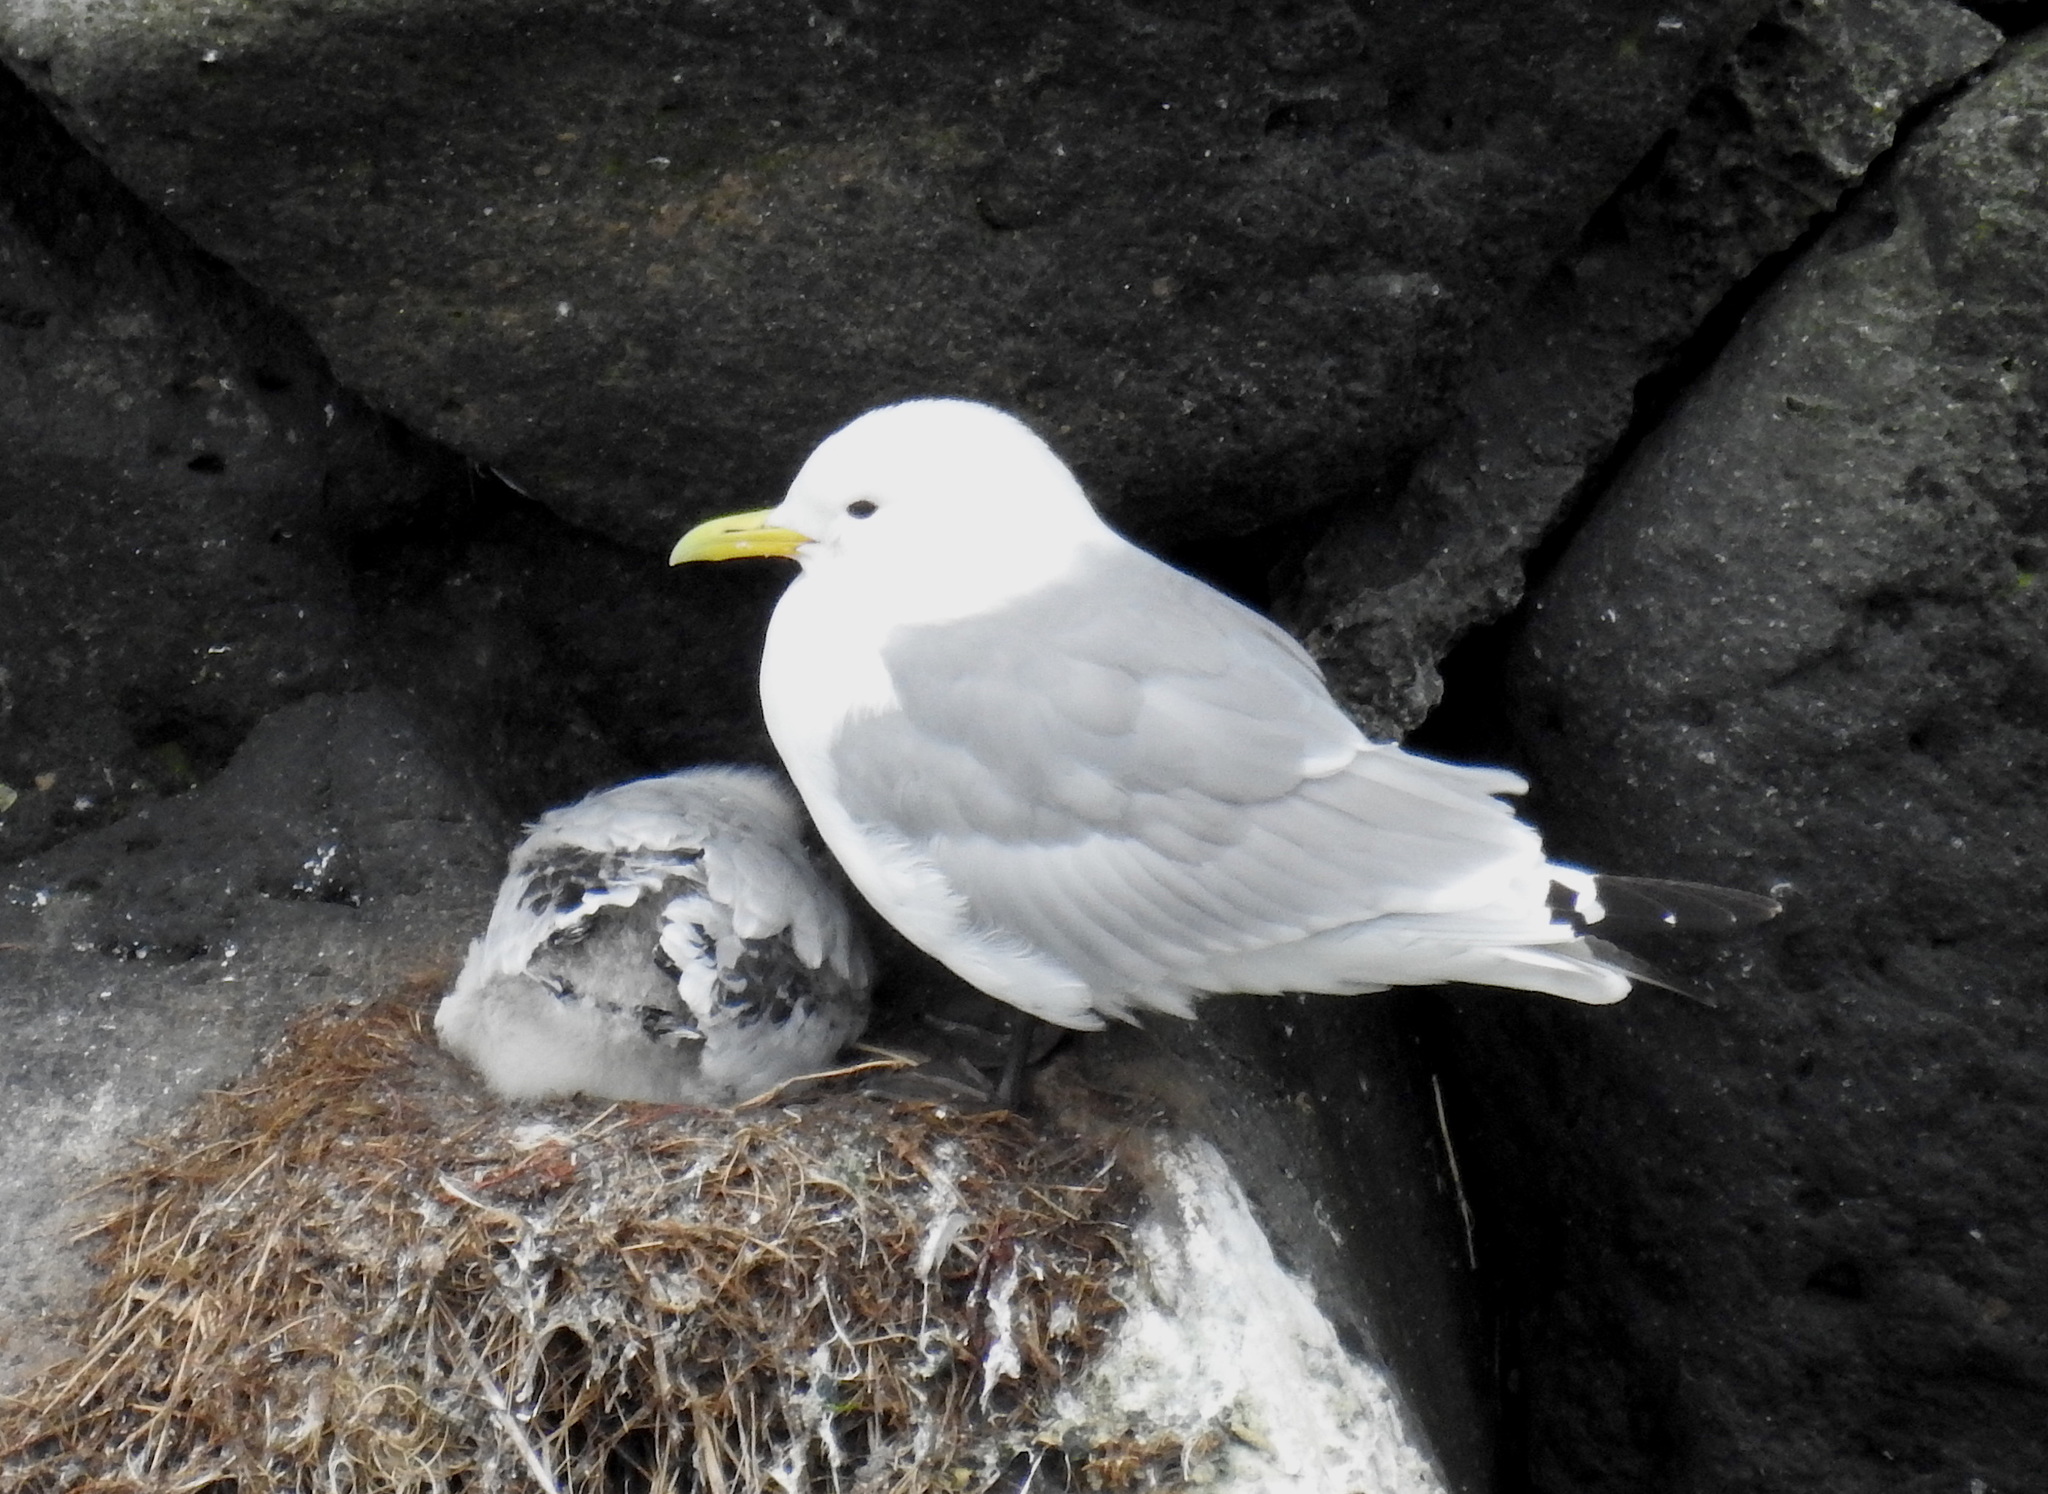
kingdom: Animalia
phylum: Chordata
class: Aves
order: Charadriiformes
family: Laridae
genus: Rissa
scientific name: Rissa tridactyla
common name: Black-legged kittiwake
